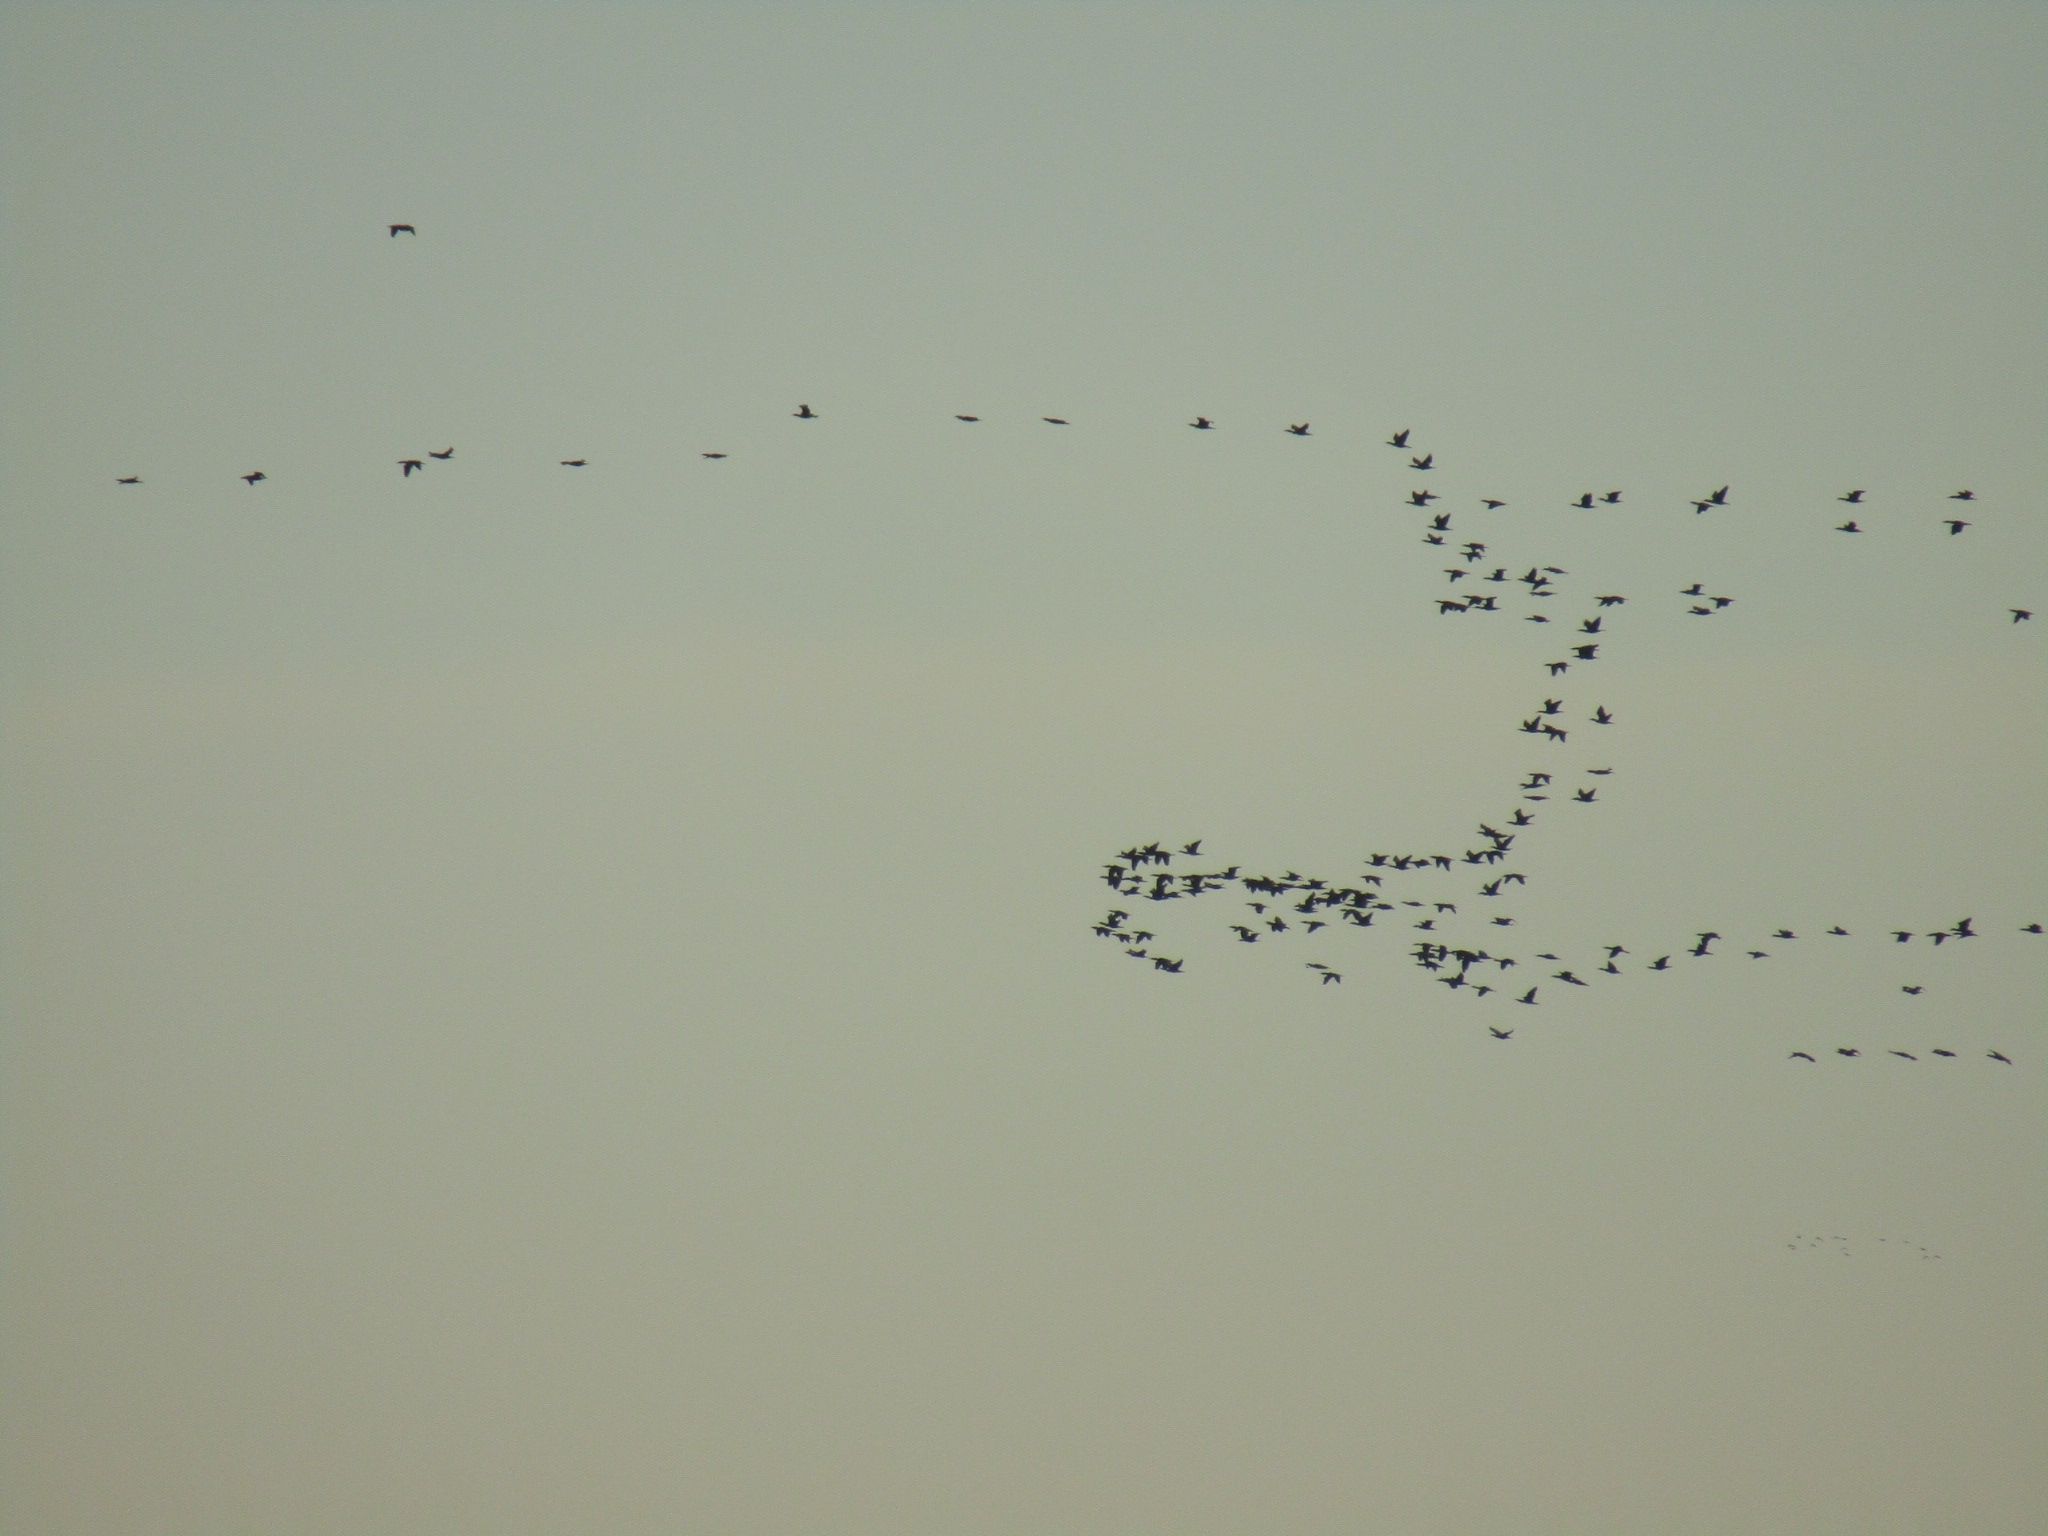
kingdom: Animalia
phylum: Chordata
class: Aves
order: Suliformes
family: Phalacrocoracidae
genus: Phalacrocorax
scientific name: Phalacrocorax carbo
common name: Great cormorant
